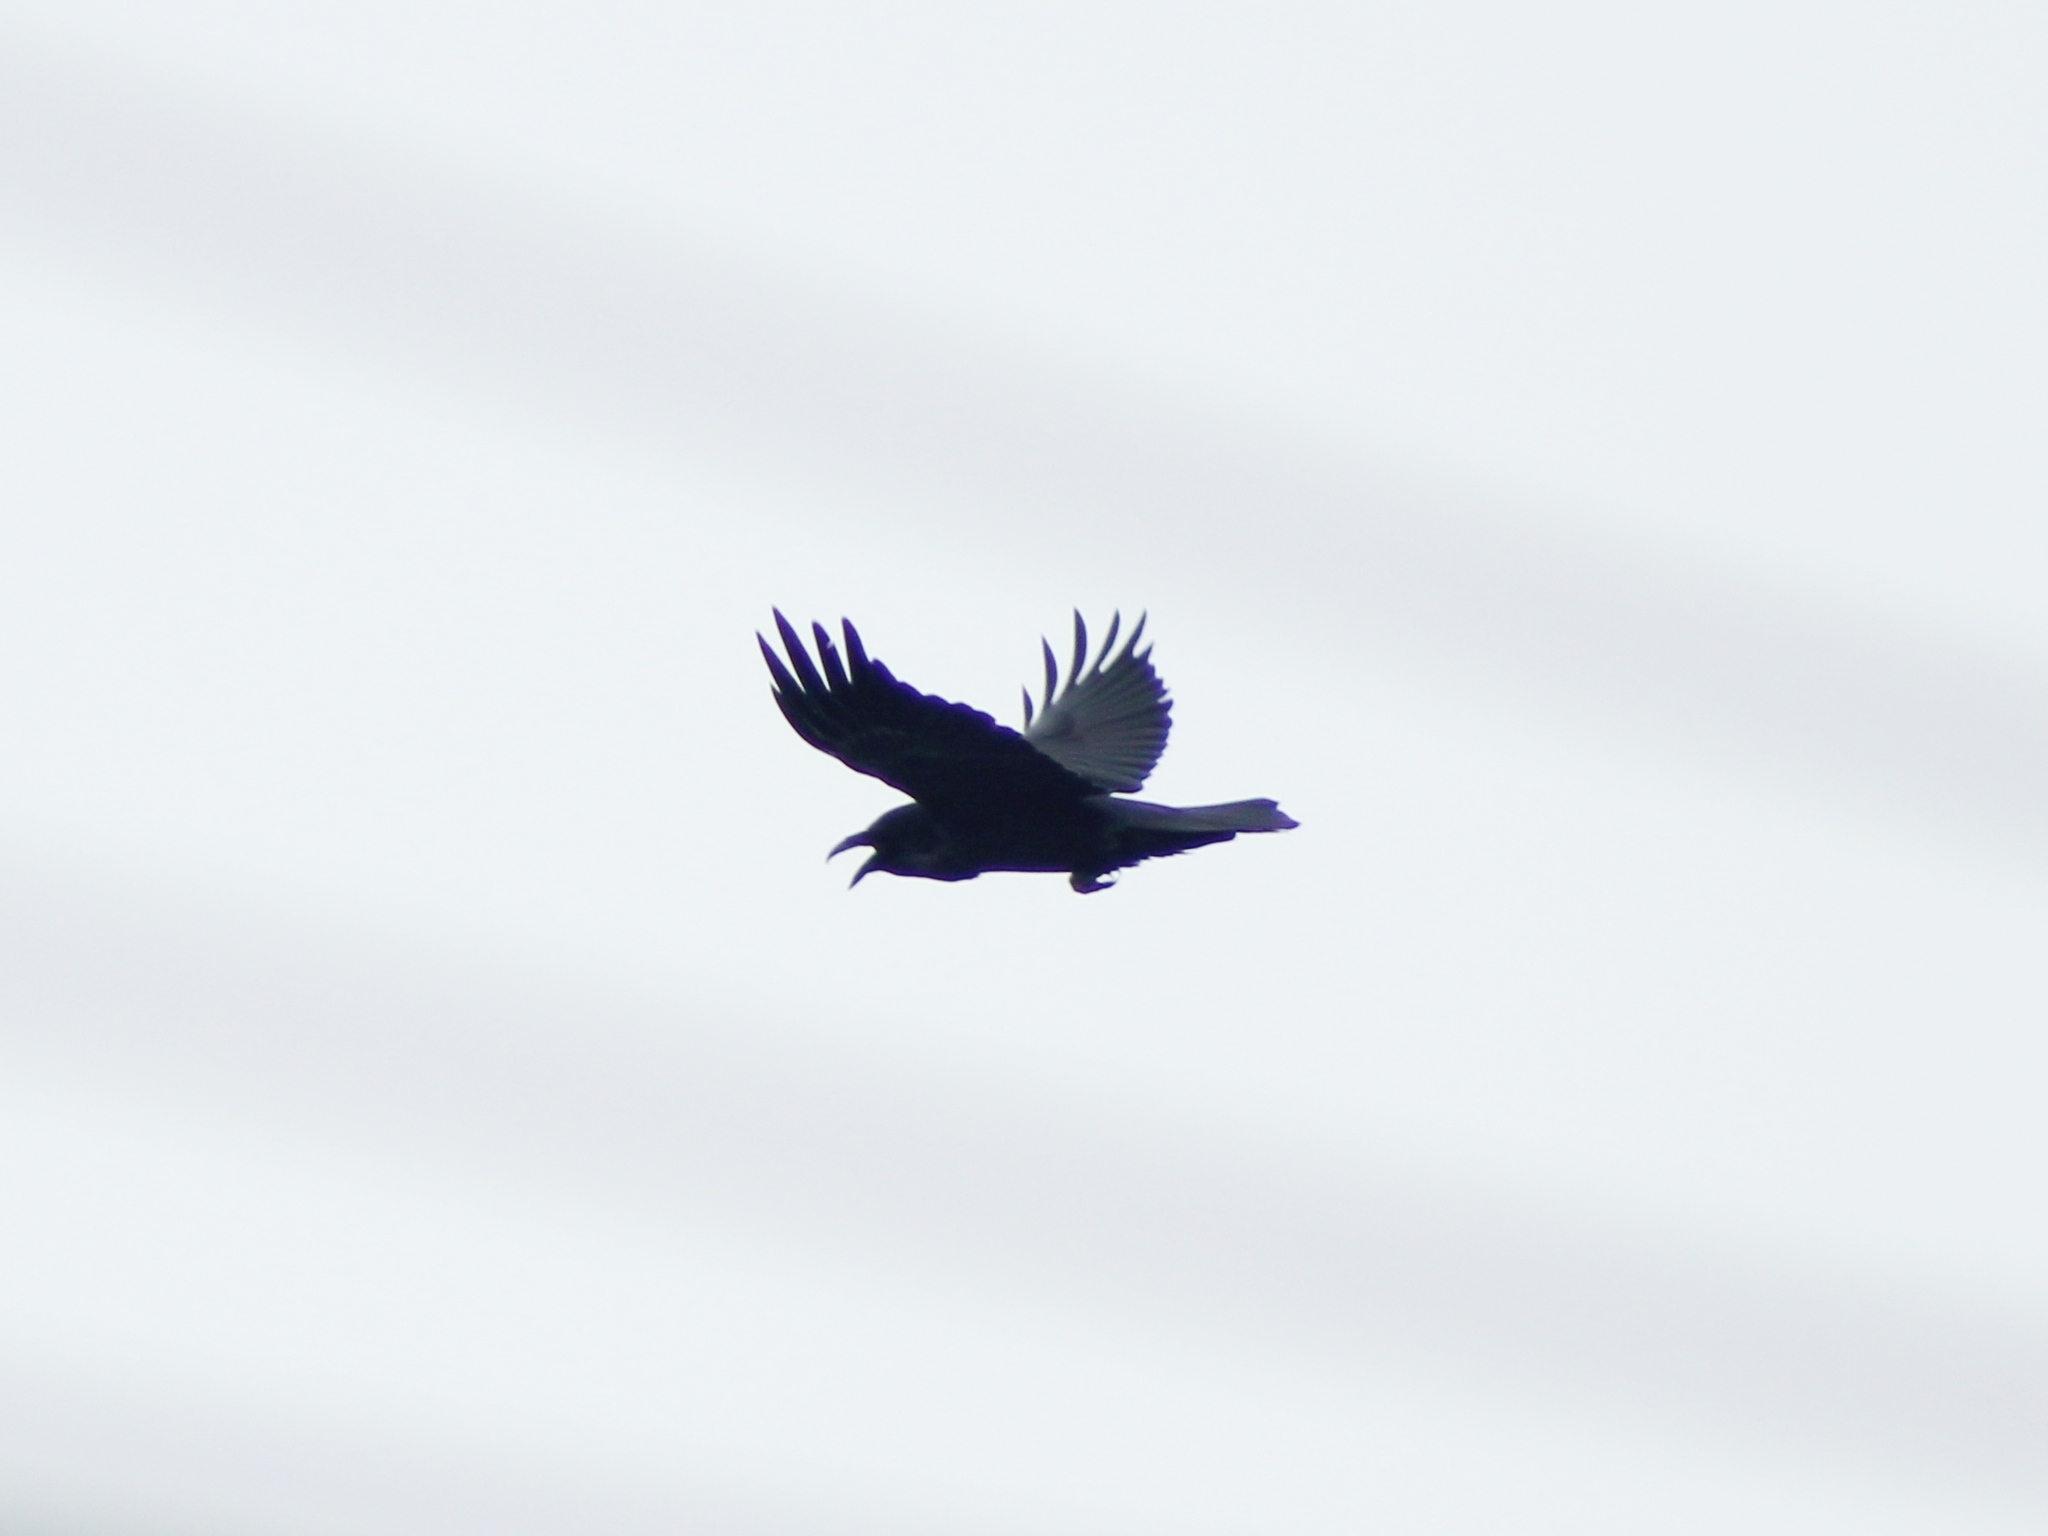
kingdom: Animalia
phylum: Chordata
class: Aves
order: Passeriformes
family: Corvidae
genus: Corvus
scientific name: Corvus corax
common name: Common raven
